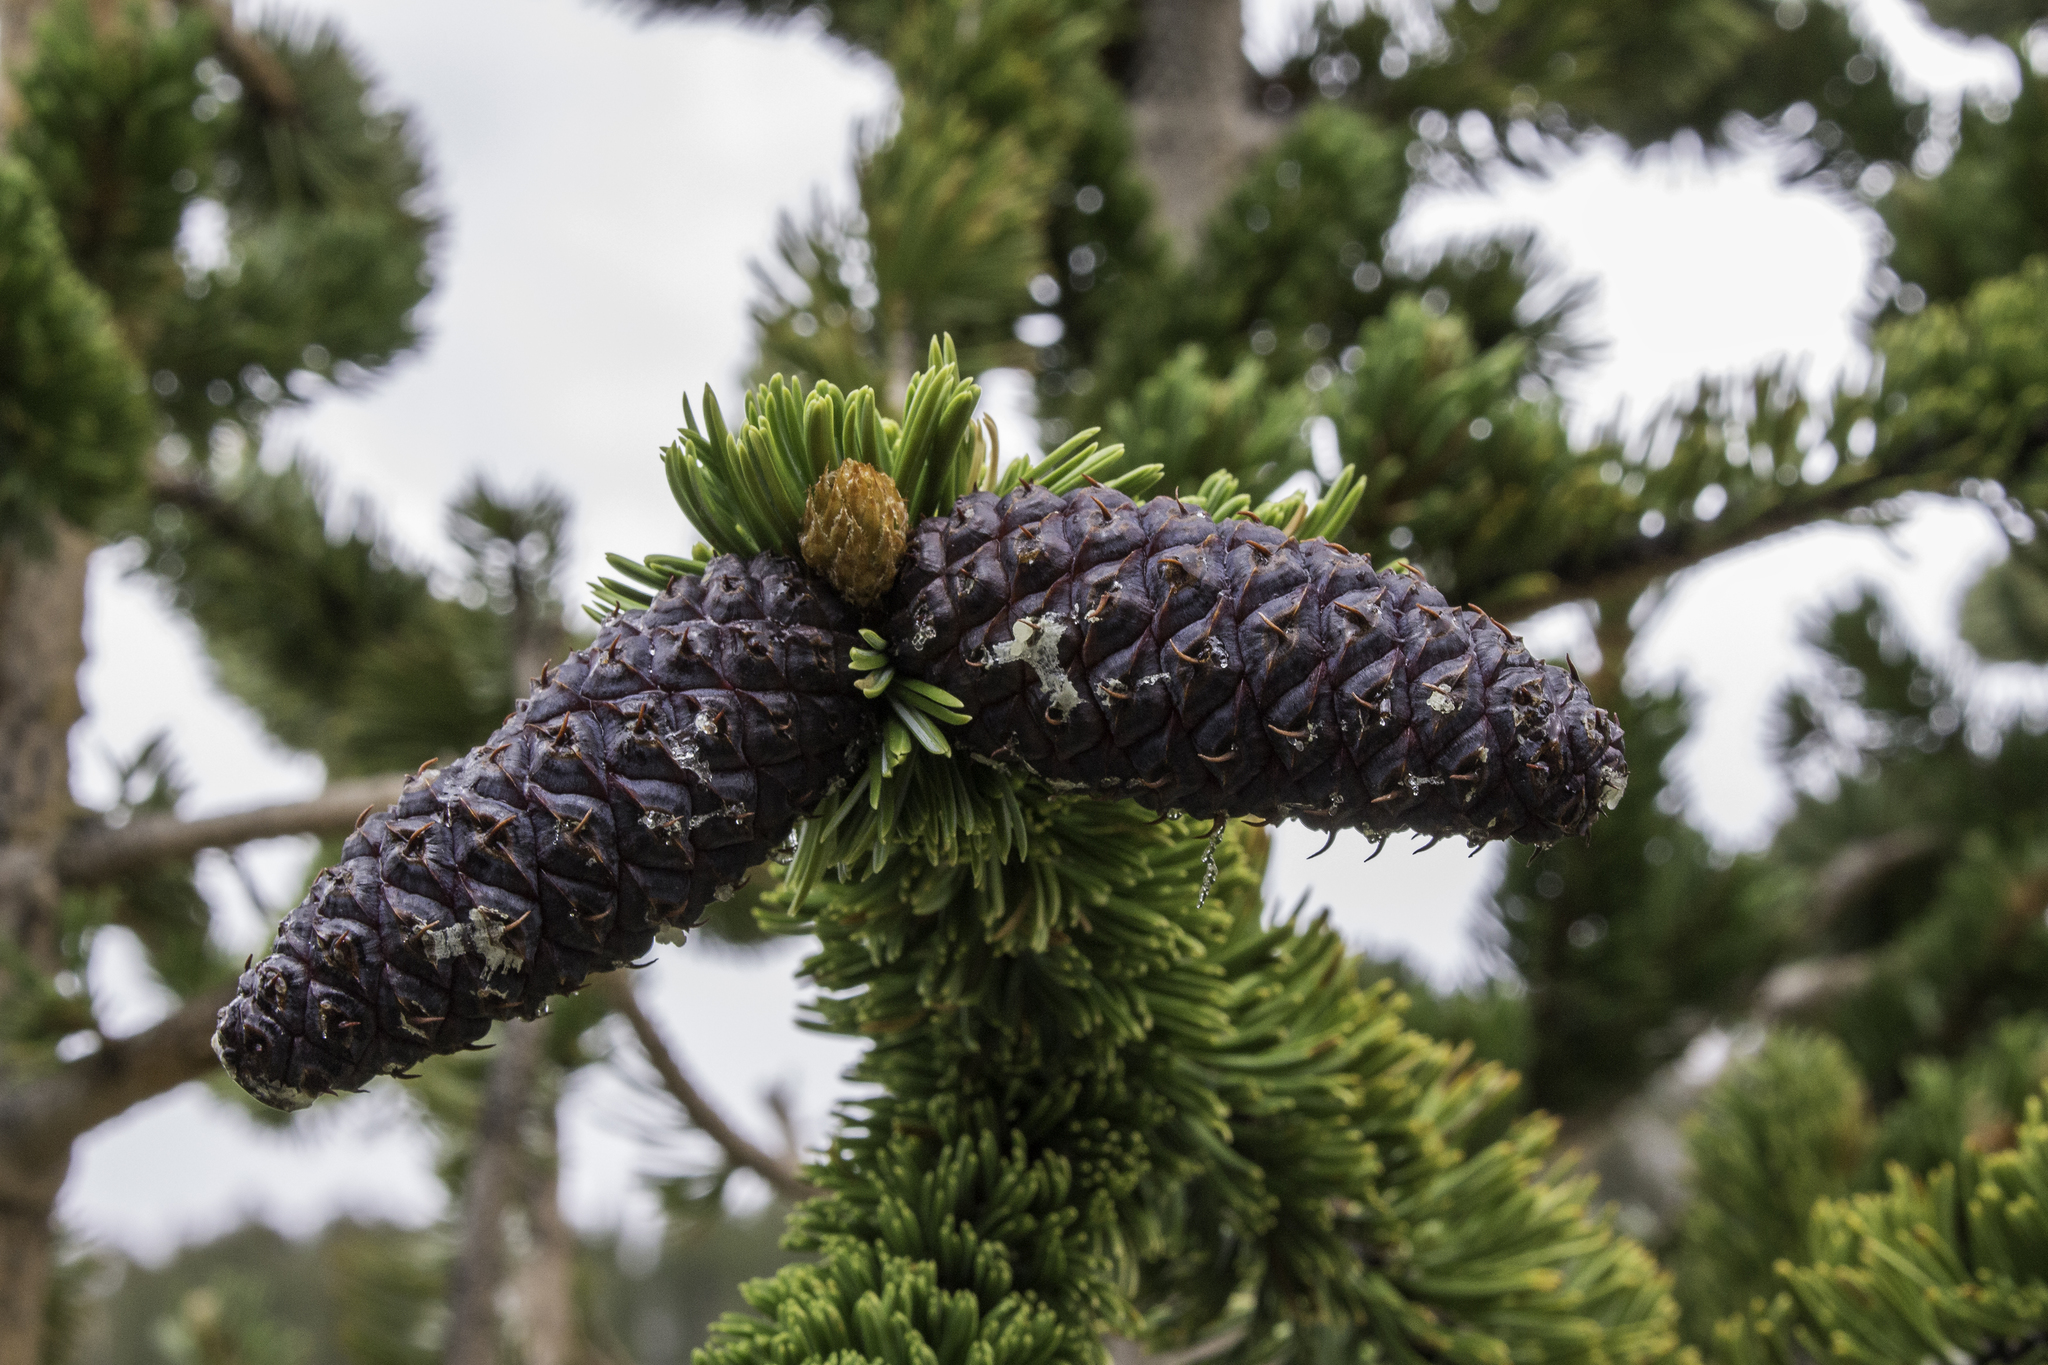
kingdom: Plantae
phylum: Tracheophyta
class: Pinopsida
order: Pinales
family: Pinaceae
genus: Pinus
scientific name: Pinus longaeva
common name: Intermountain bristlecone pine
